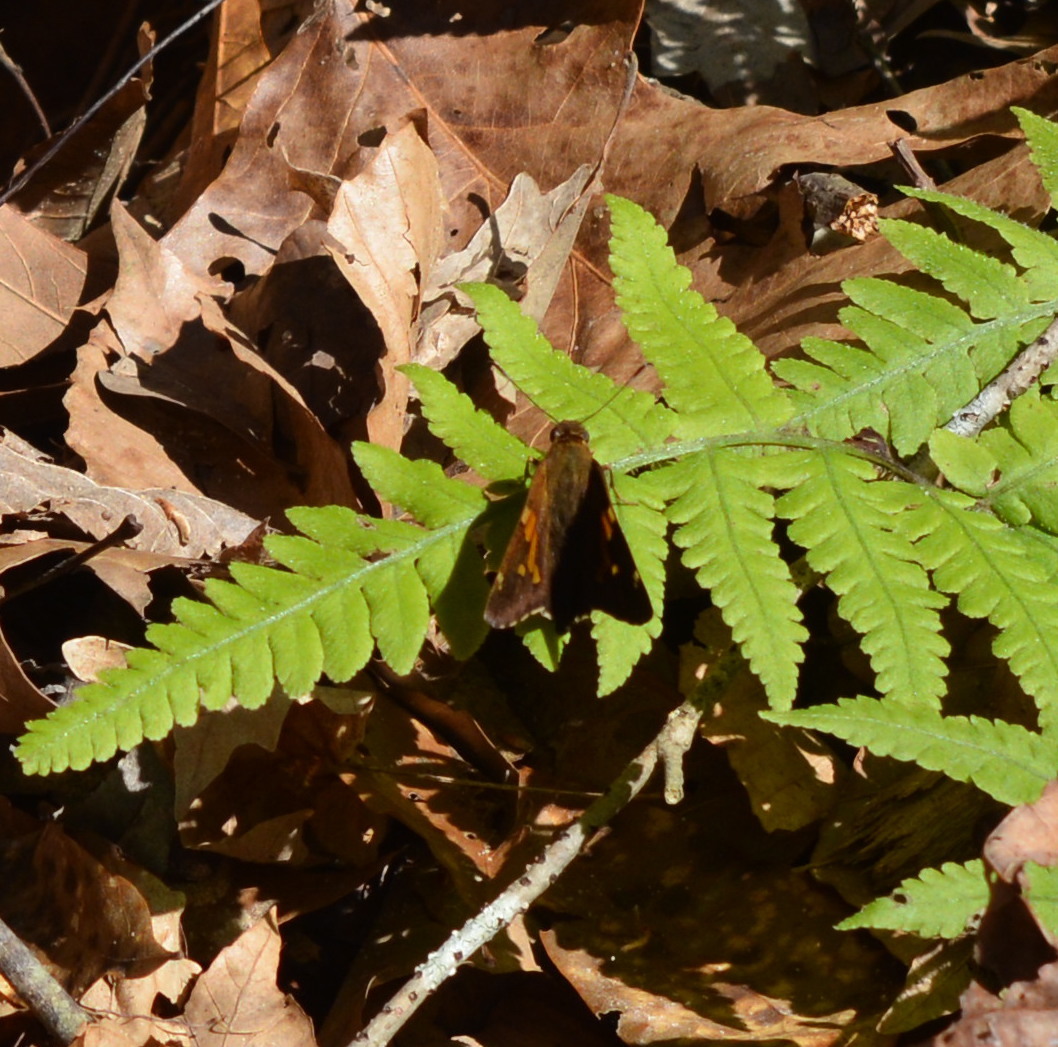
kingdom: Animalia
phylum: Arthropoda
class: Insecta
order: Lepidoptera
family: Hesperiidae
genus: Epargyreus
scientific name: Epargyreus clarus
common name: Silver-spotted skipper
